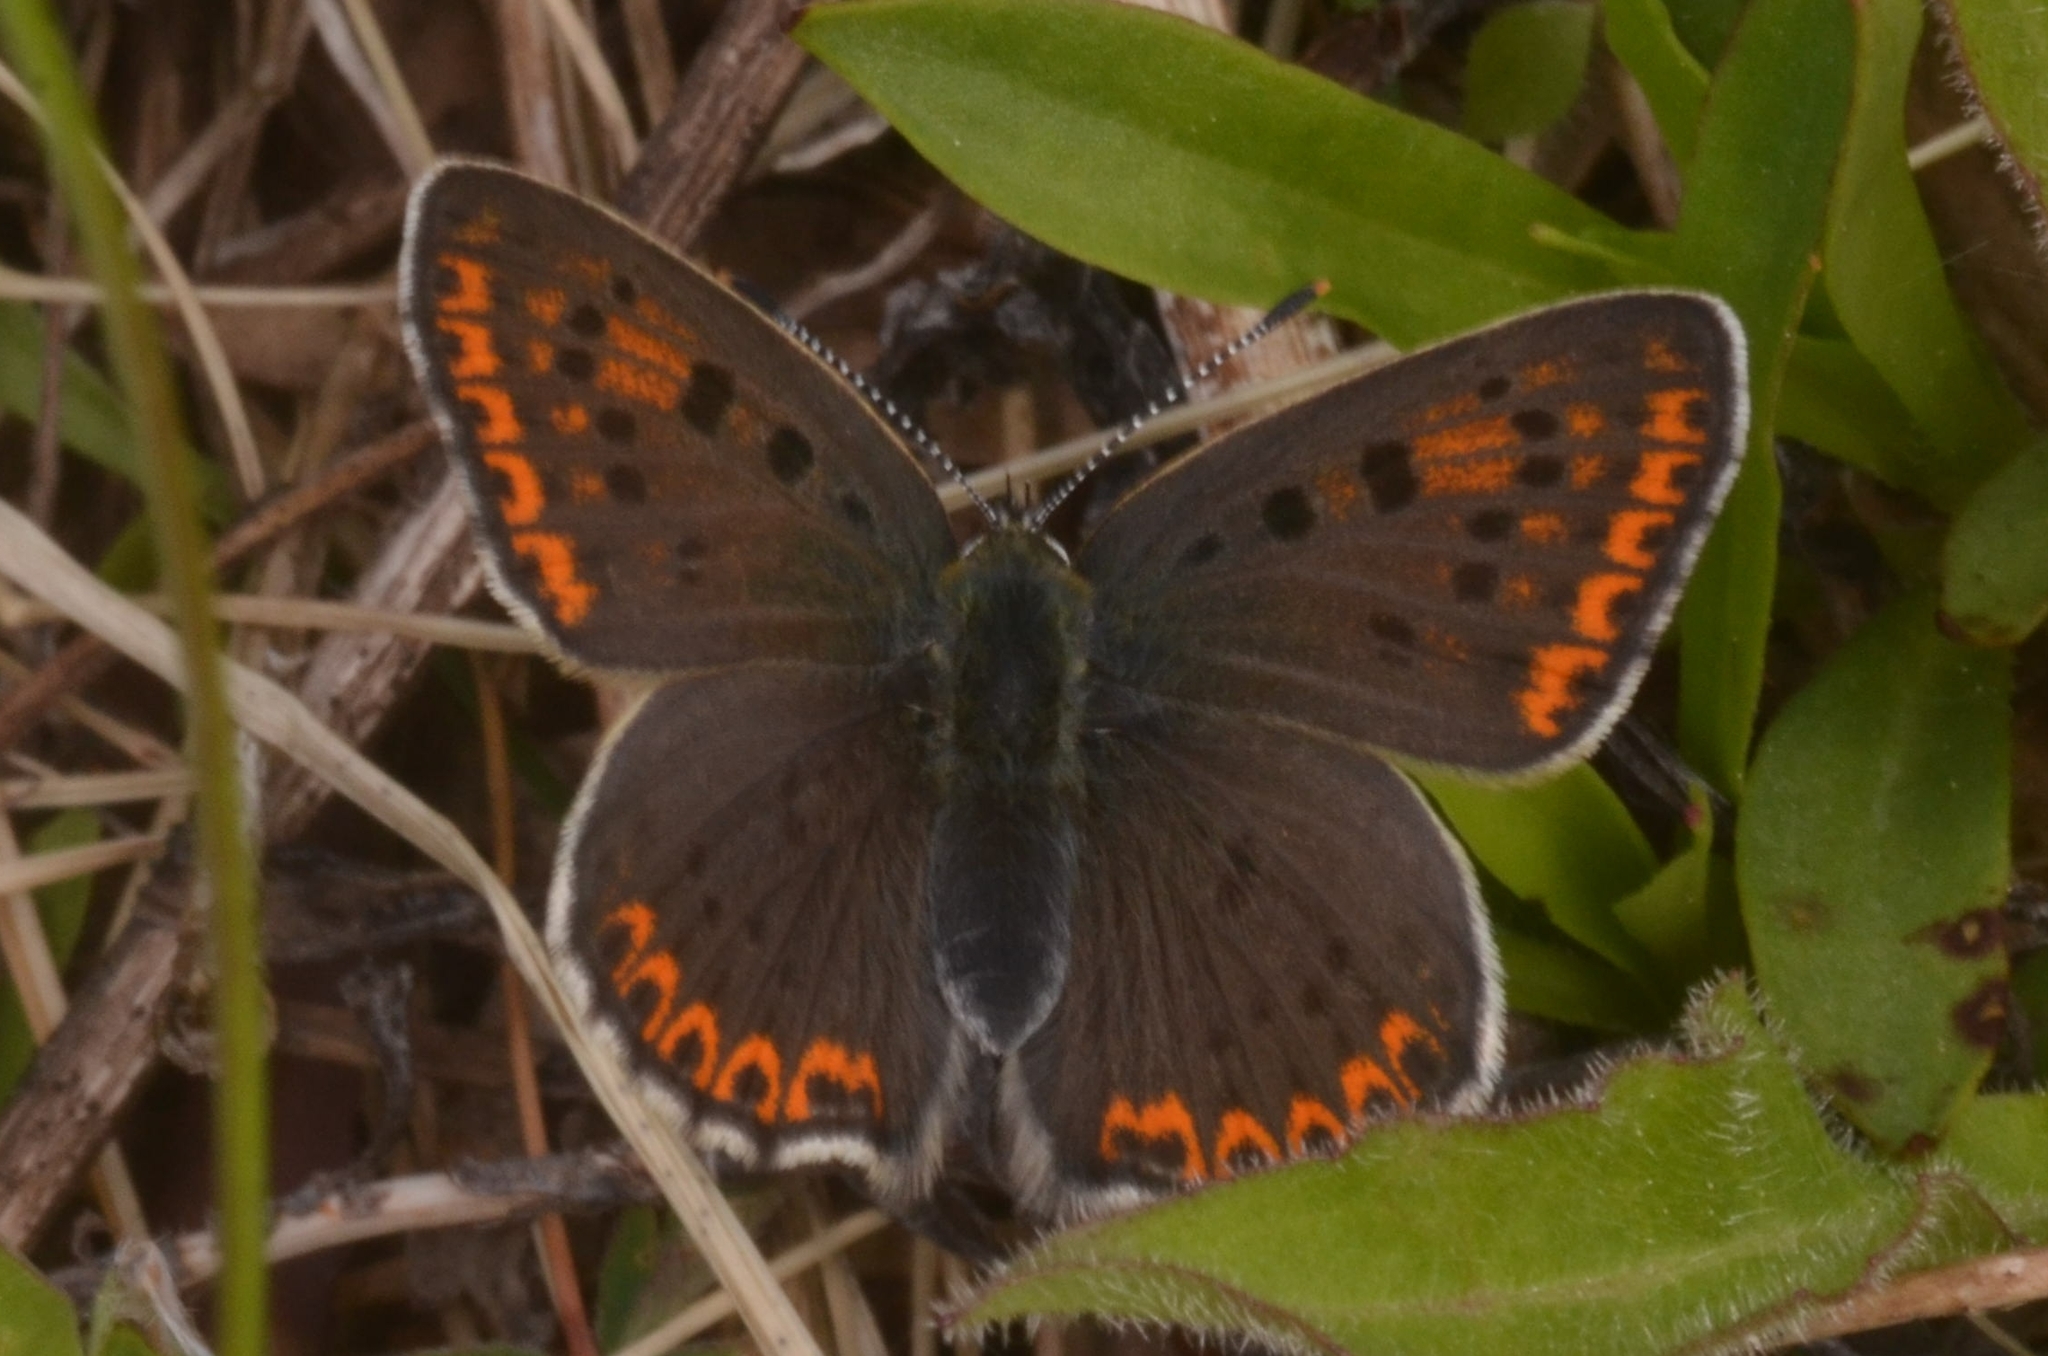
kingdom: Animalia
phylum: Arthropoda
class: Insecta
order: Lepidoptera
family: Lycaenidae
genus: Loweia
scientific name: Loweia tityrus
